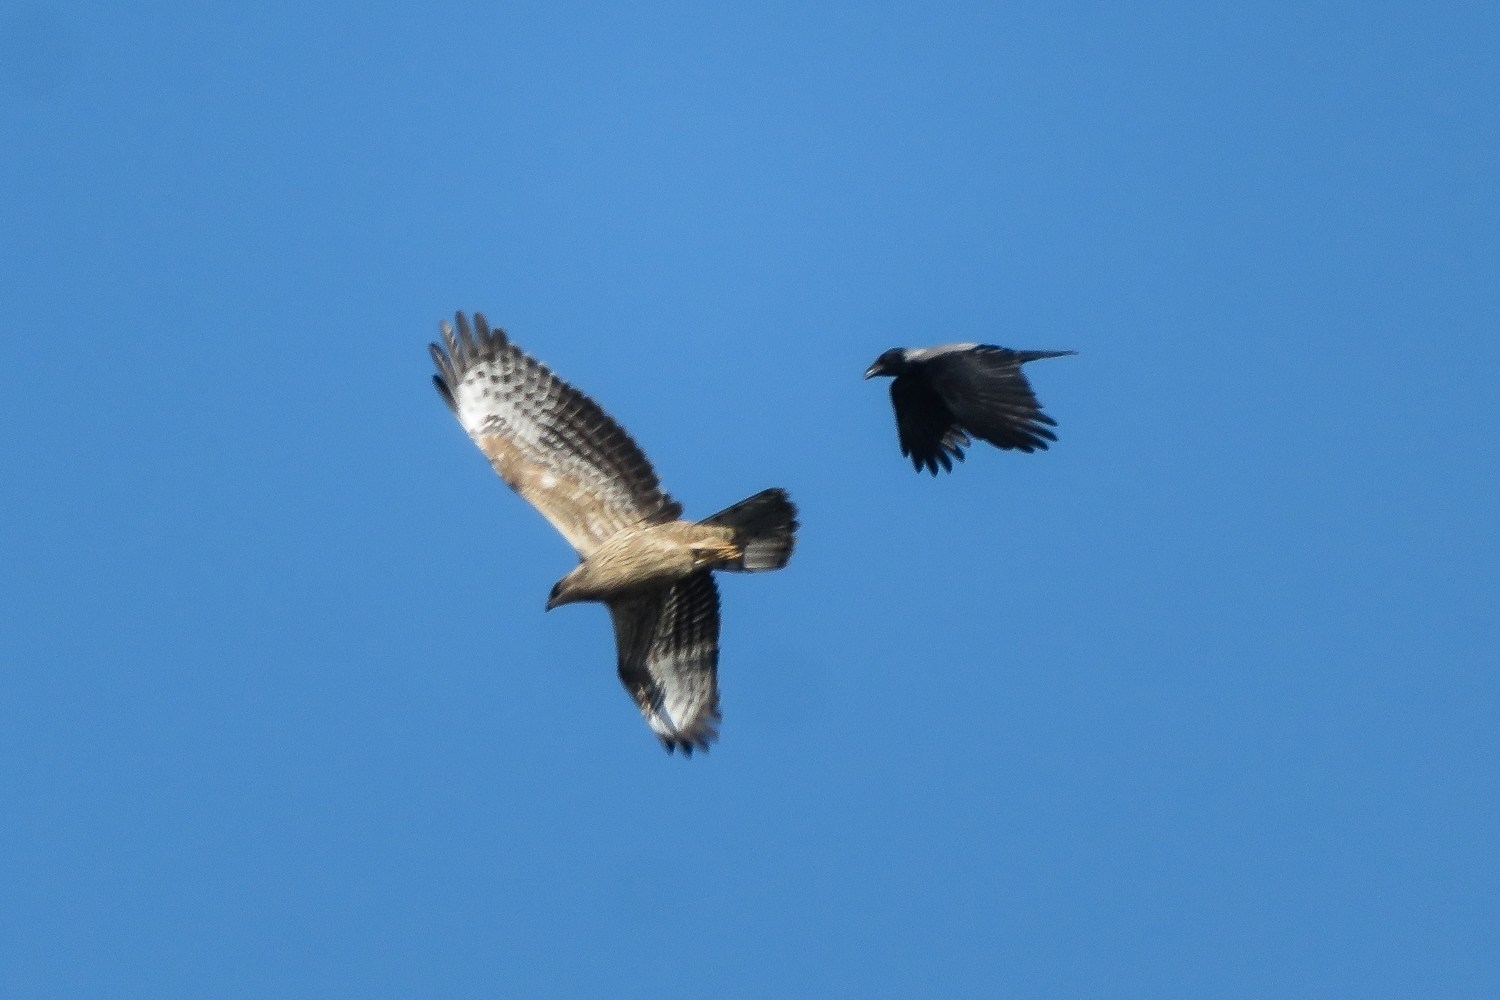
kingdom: Animalia
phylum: Chordata
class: Aves
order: Accipitriformes
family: Accipitridae
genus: Pernis
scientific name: Pernis apivorus
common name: European honey buzzard
